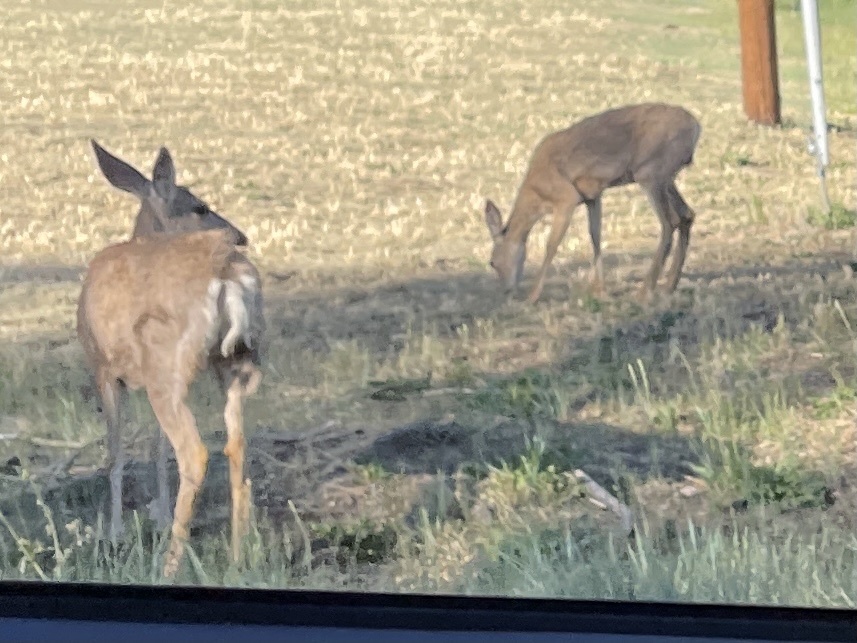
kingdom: Animalia
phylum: Chordata
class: Mammalia
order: Artiodactyla
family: Cervidae
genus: Odocoileus
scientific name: Odocoileus hemionus
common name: Mule deer
